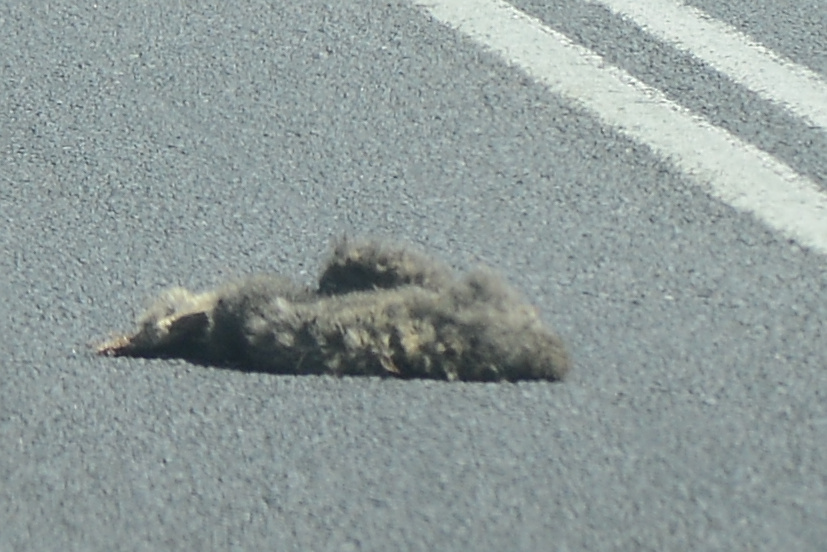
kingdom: Animalia
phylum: Chordata
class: Mammalia
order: Diprotodontia
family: Phalangeridae
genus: Trichosurus
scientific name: Trichosurus vulpecula
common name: Common brushtail
